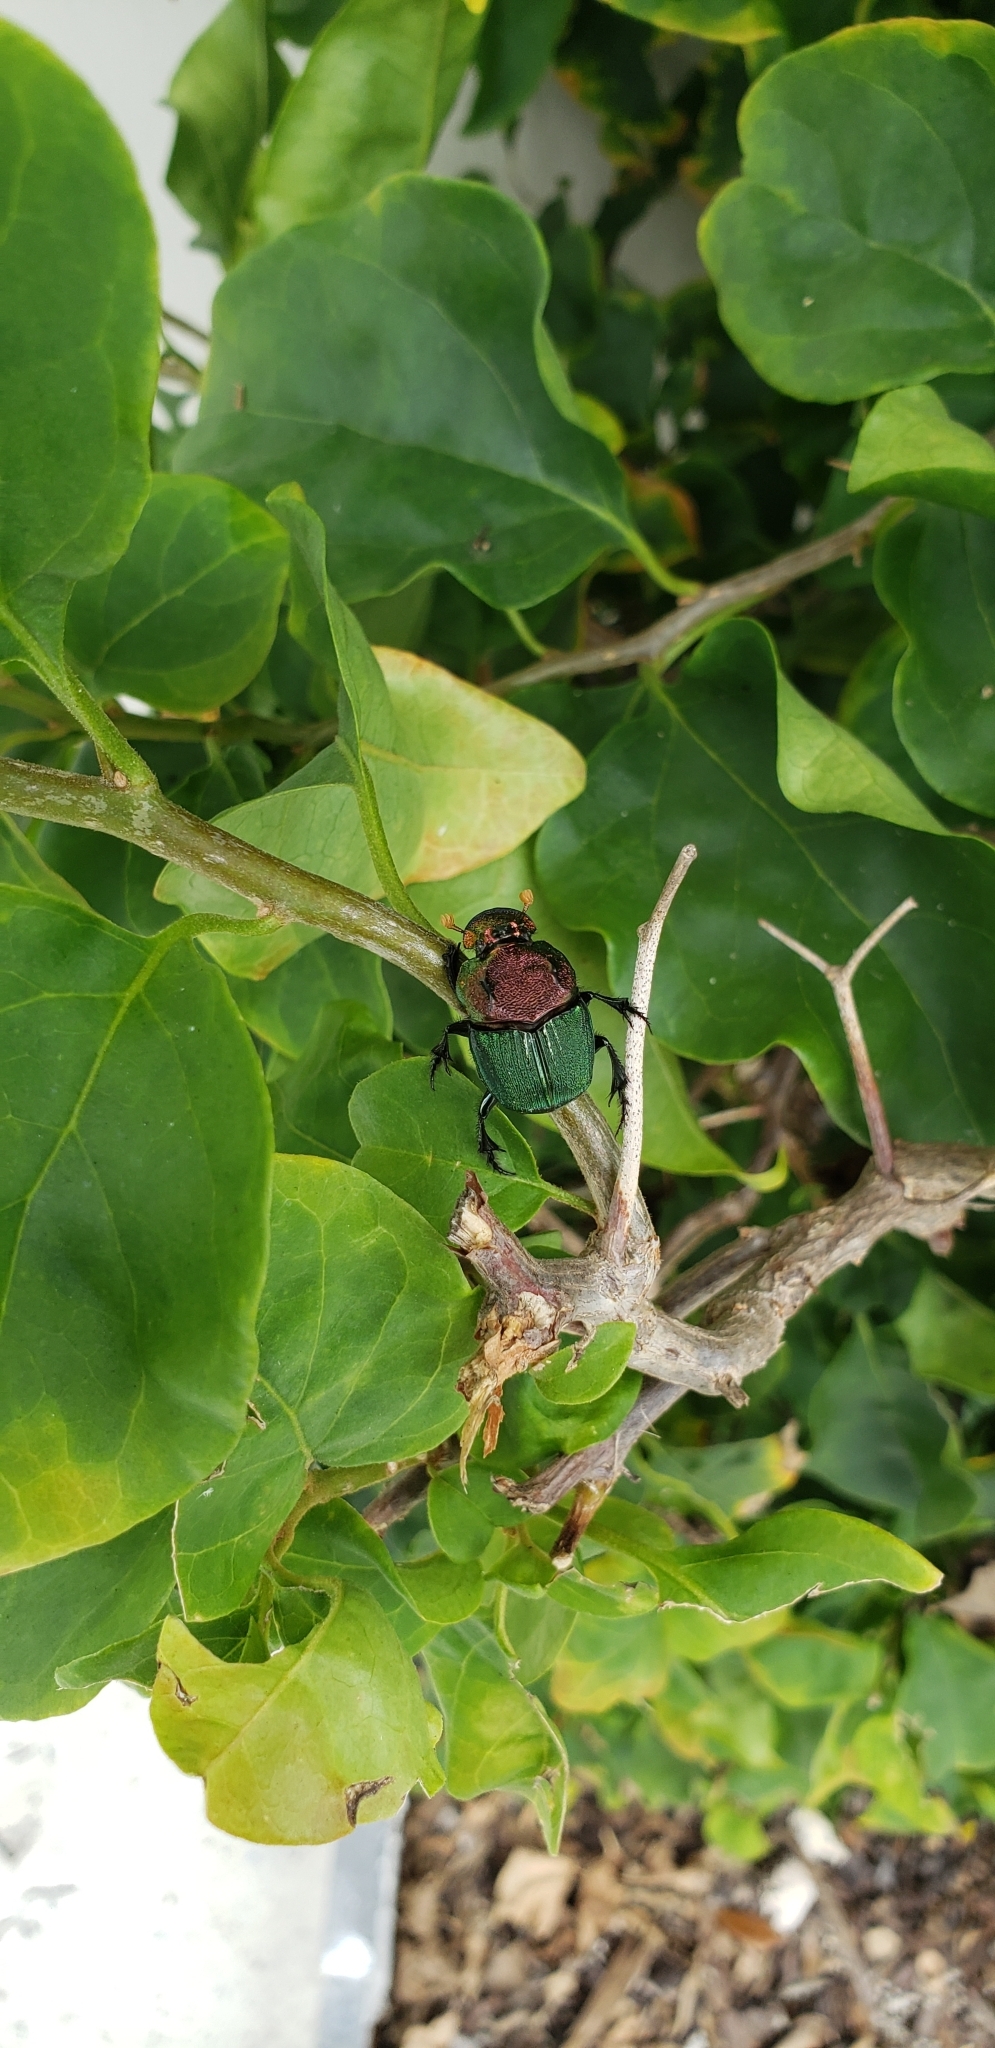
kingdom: Animalia
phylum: Arthropoda
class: Insecta
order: Coleoptera
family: Scarabaeidae
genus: Phanaeus
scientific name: Phanaeus vindex
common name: Rainbow scarab
